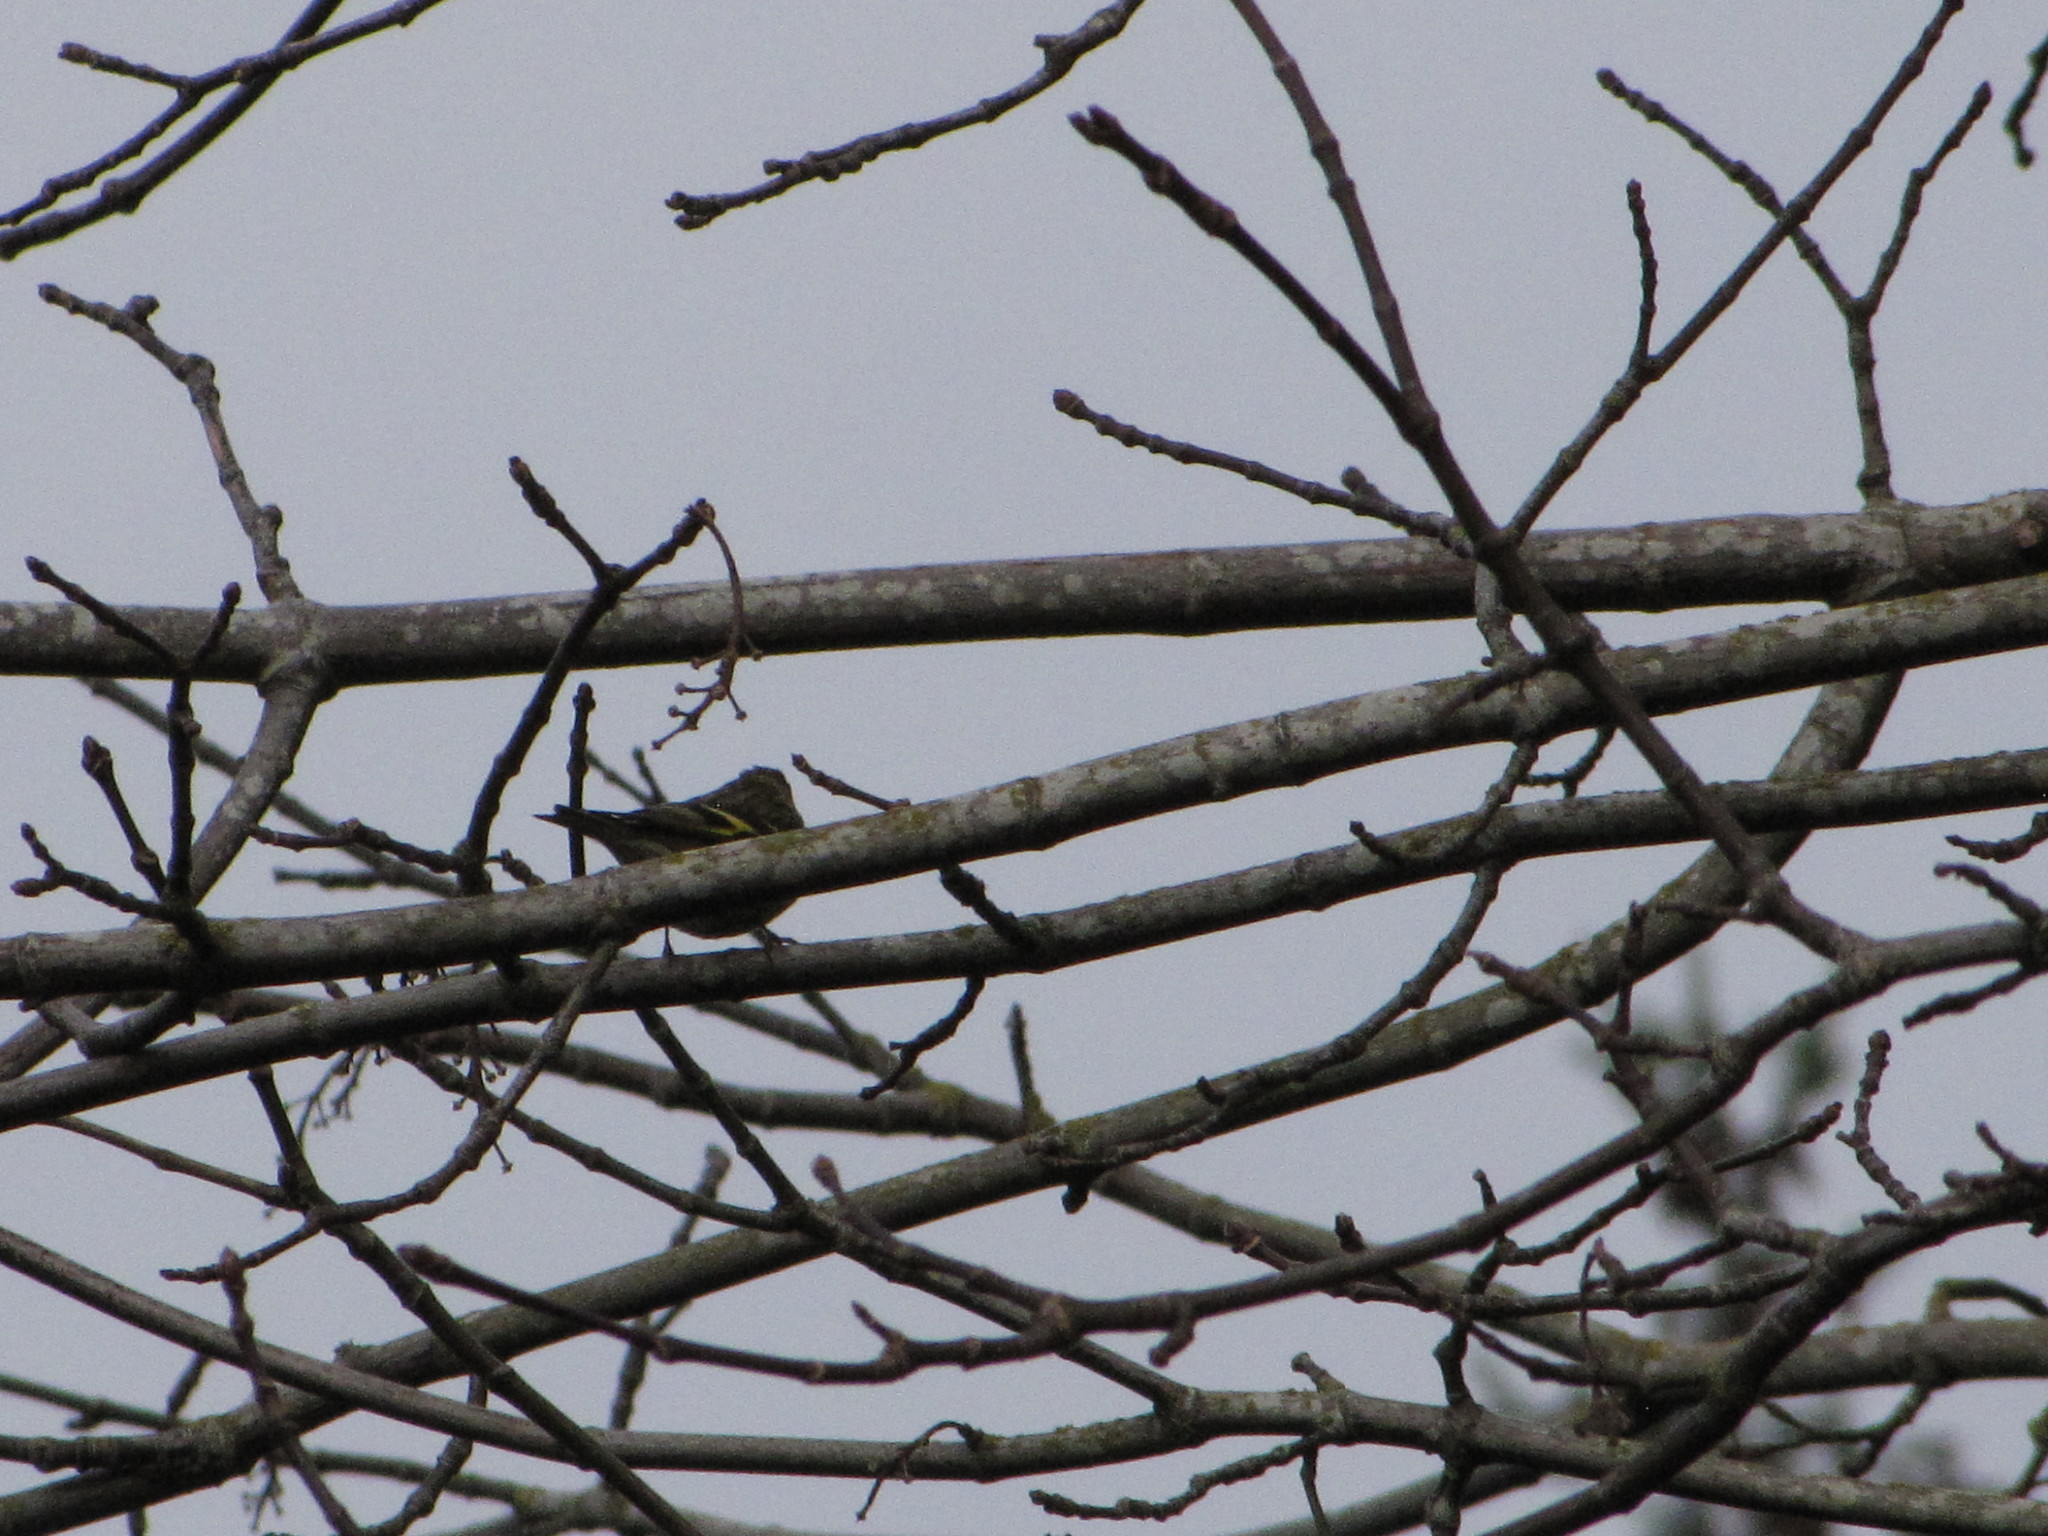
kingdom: Animalia
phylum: Chordata
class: Aves
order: Passeriformes
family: Fringillidae
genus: Spinus
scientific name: Spinus pinus
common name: Pine siskin
